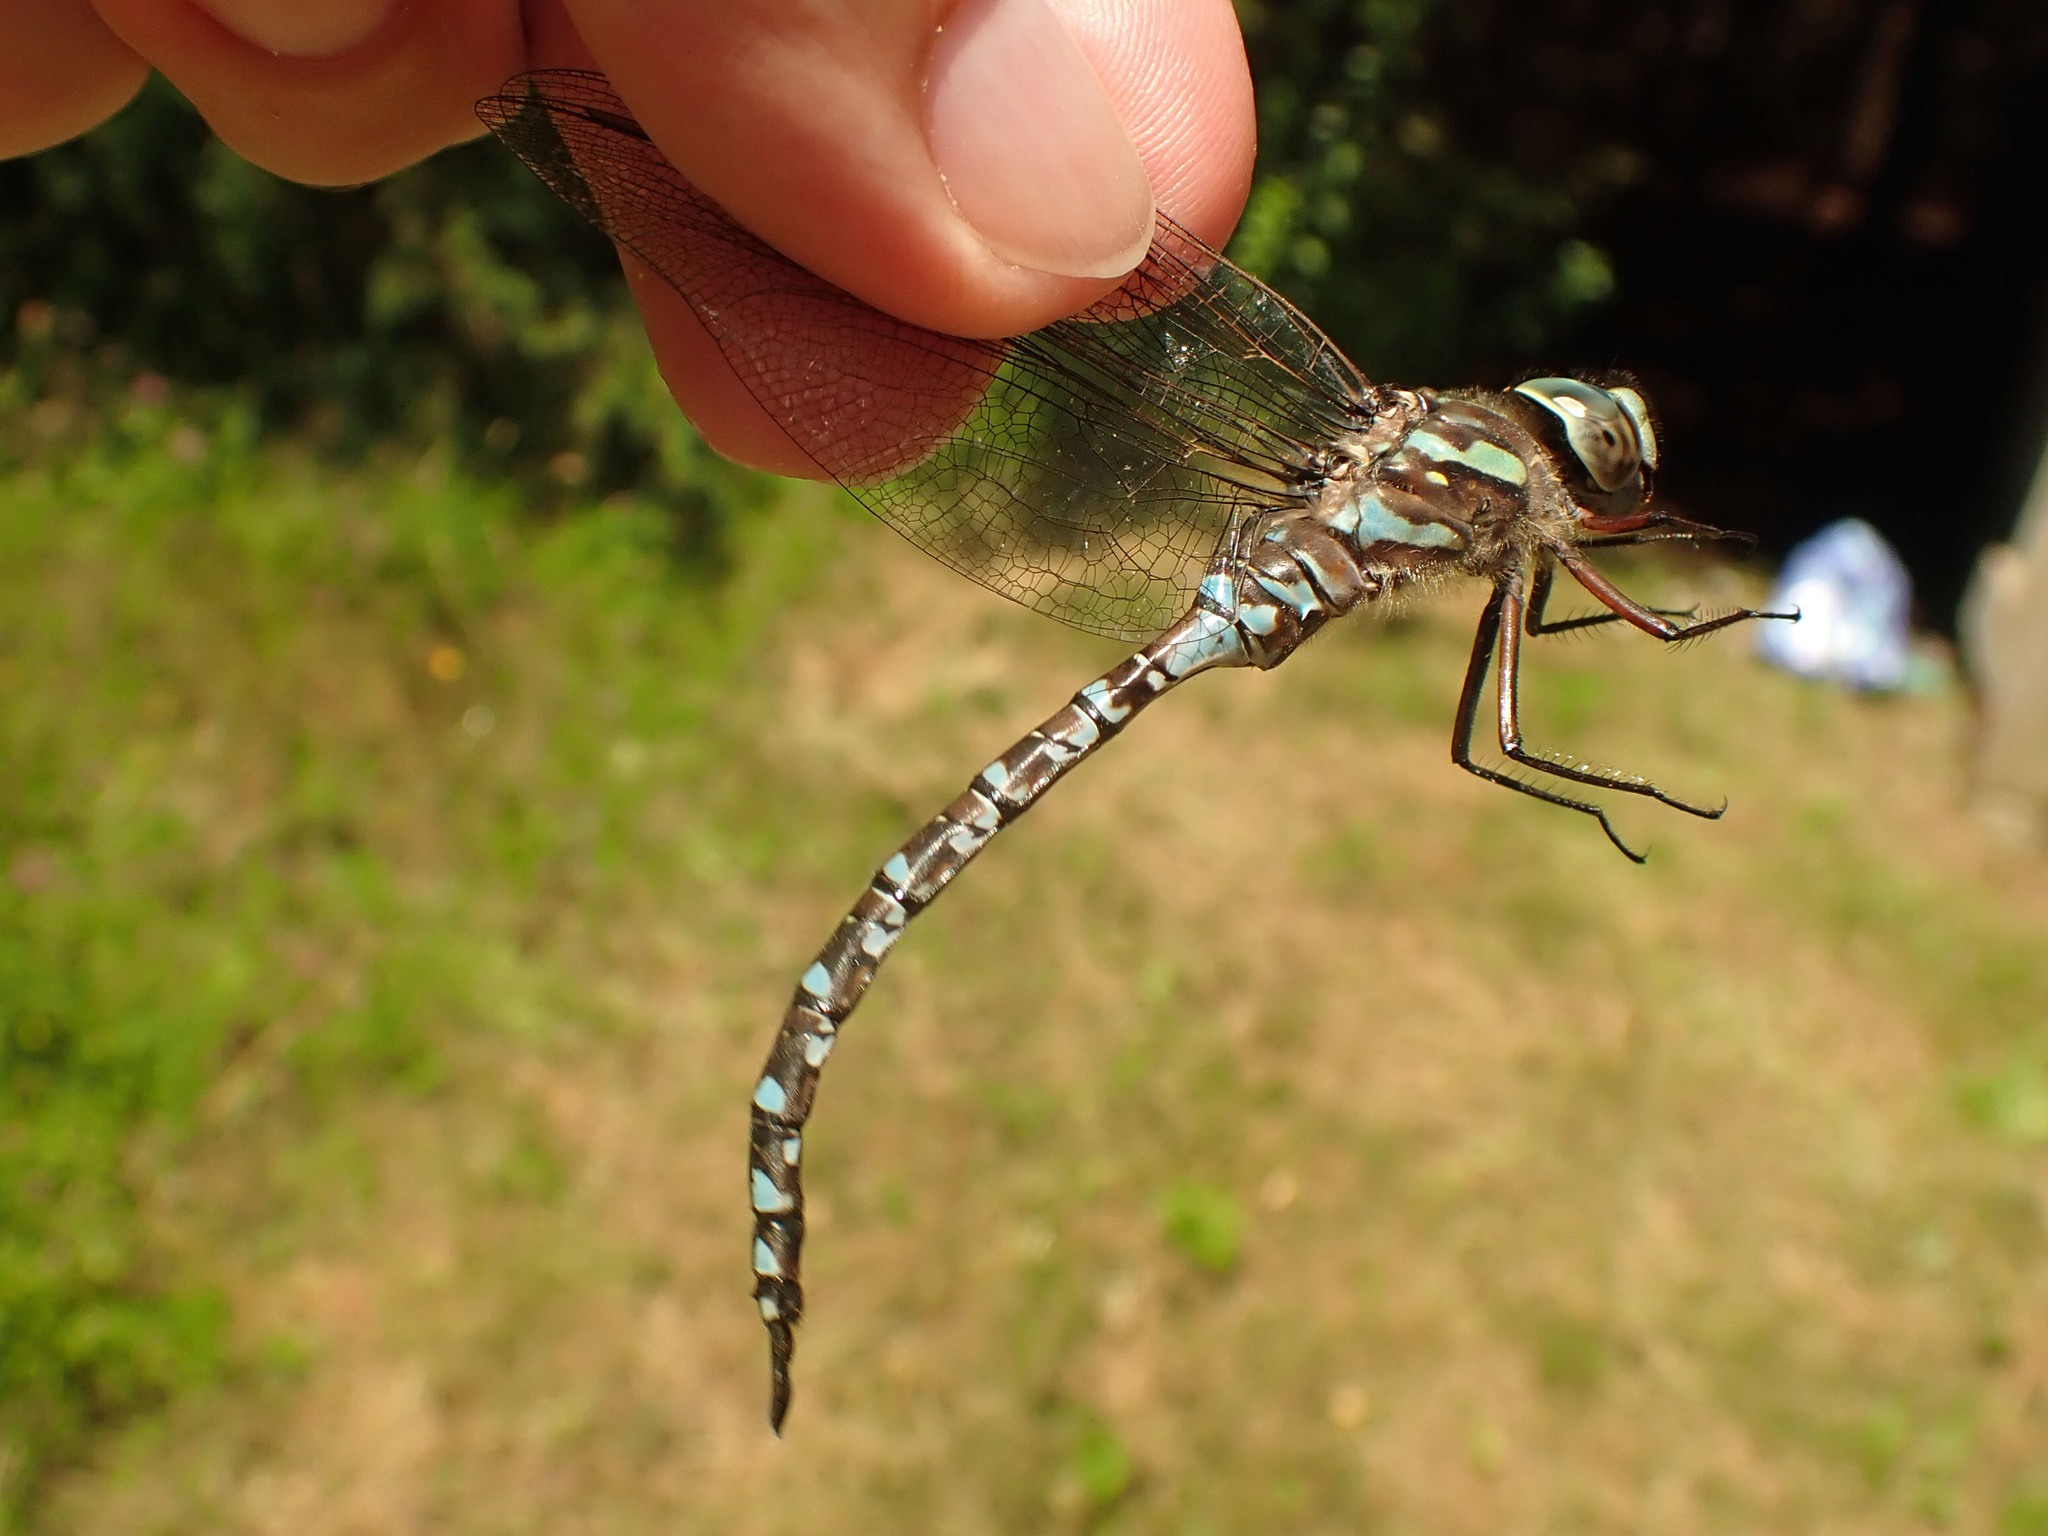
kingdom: Animalia
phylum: Arthropoda
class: Insecta
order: Odonata
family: Aeshnidae
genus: Aeshna
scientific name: Aeshna canadensis
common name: Canada darner
